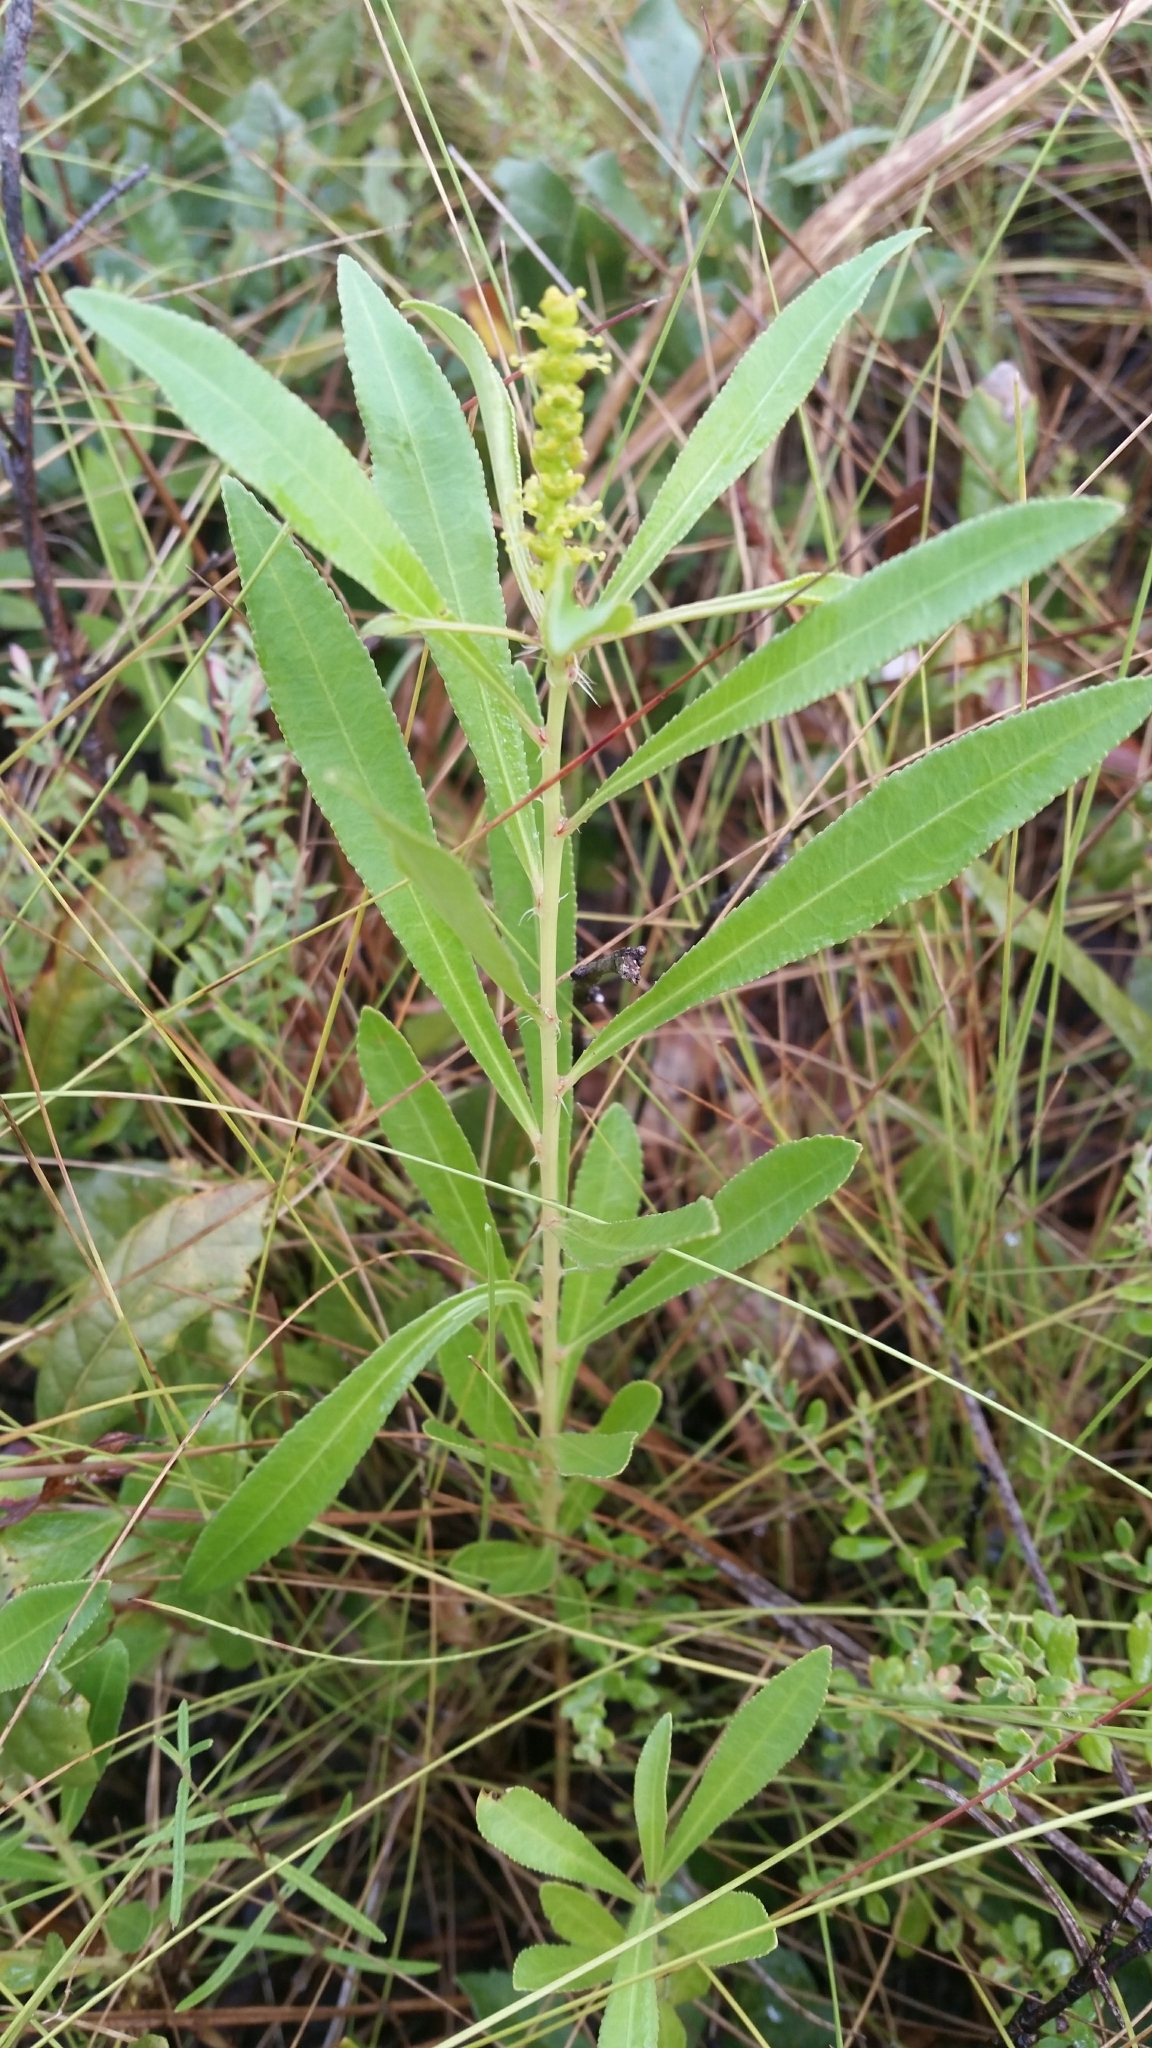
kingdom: Plantae
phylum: Tracheophyta
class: Magnoliopsida
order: Malpighiales
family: Euphorbiaceae
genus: Stillingia
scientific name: Stillingia sylvatica
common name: Queen's-delight
